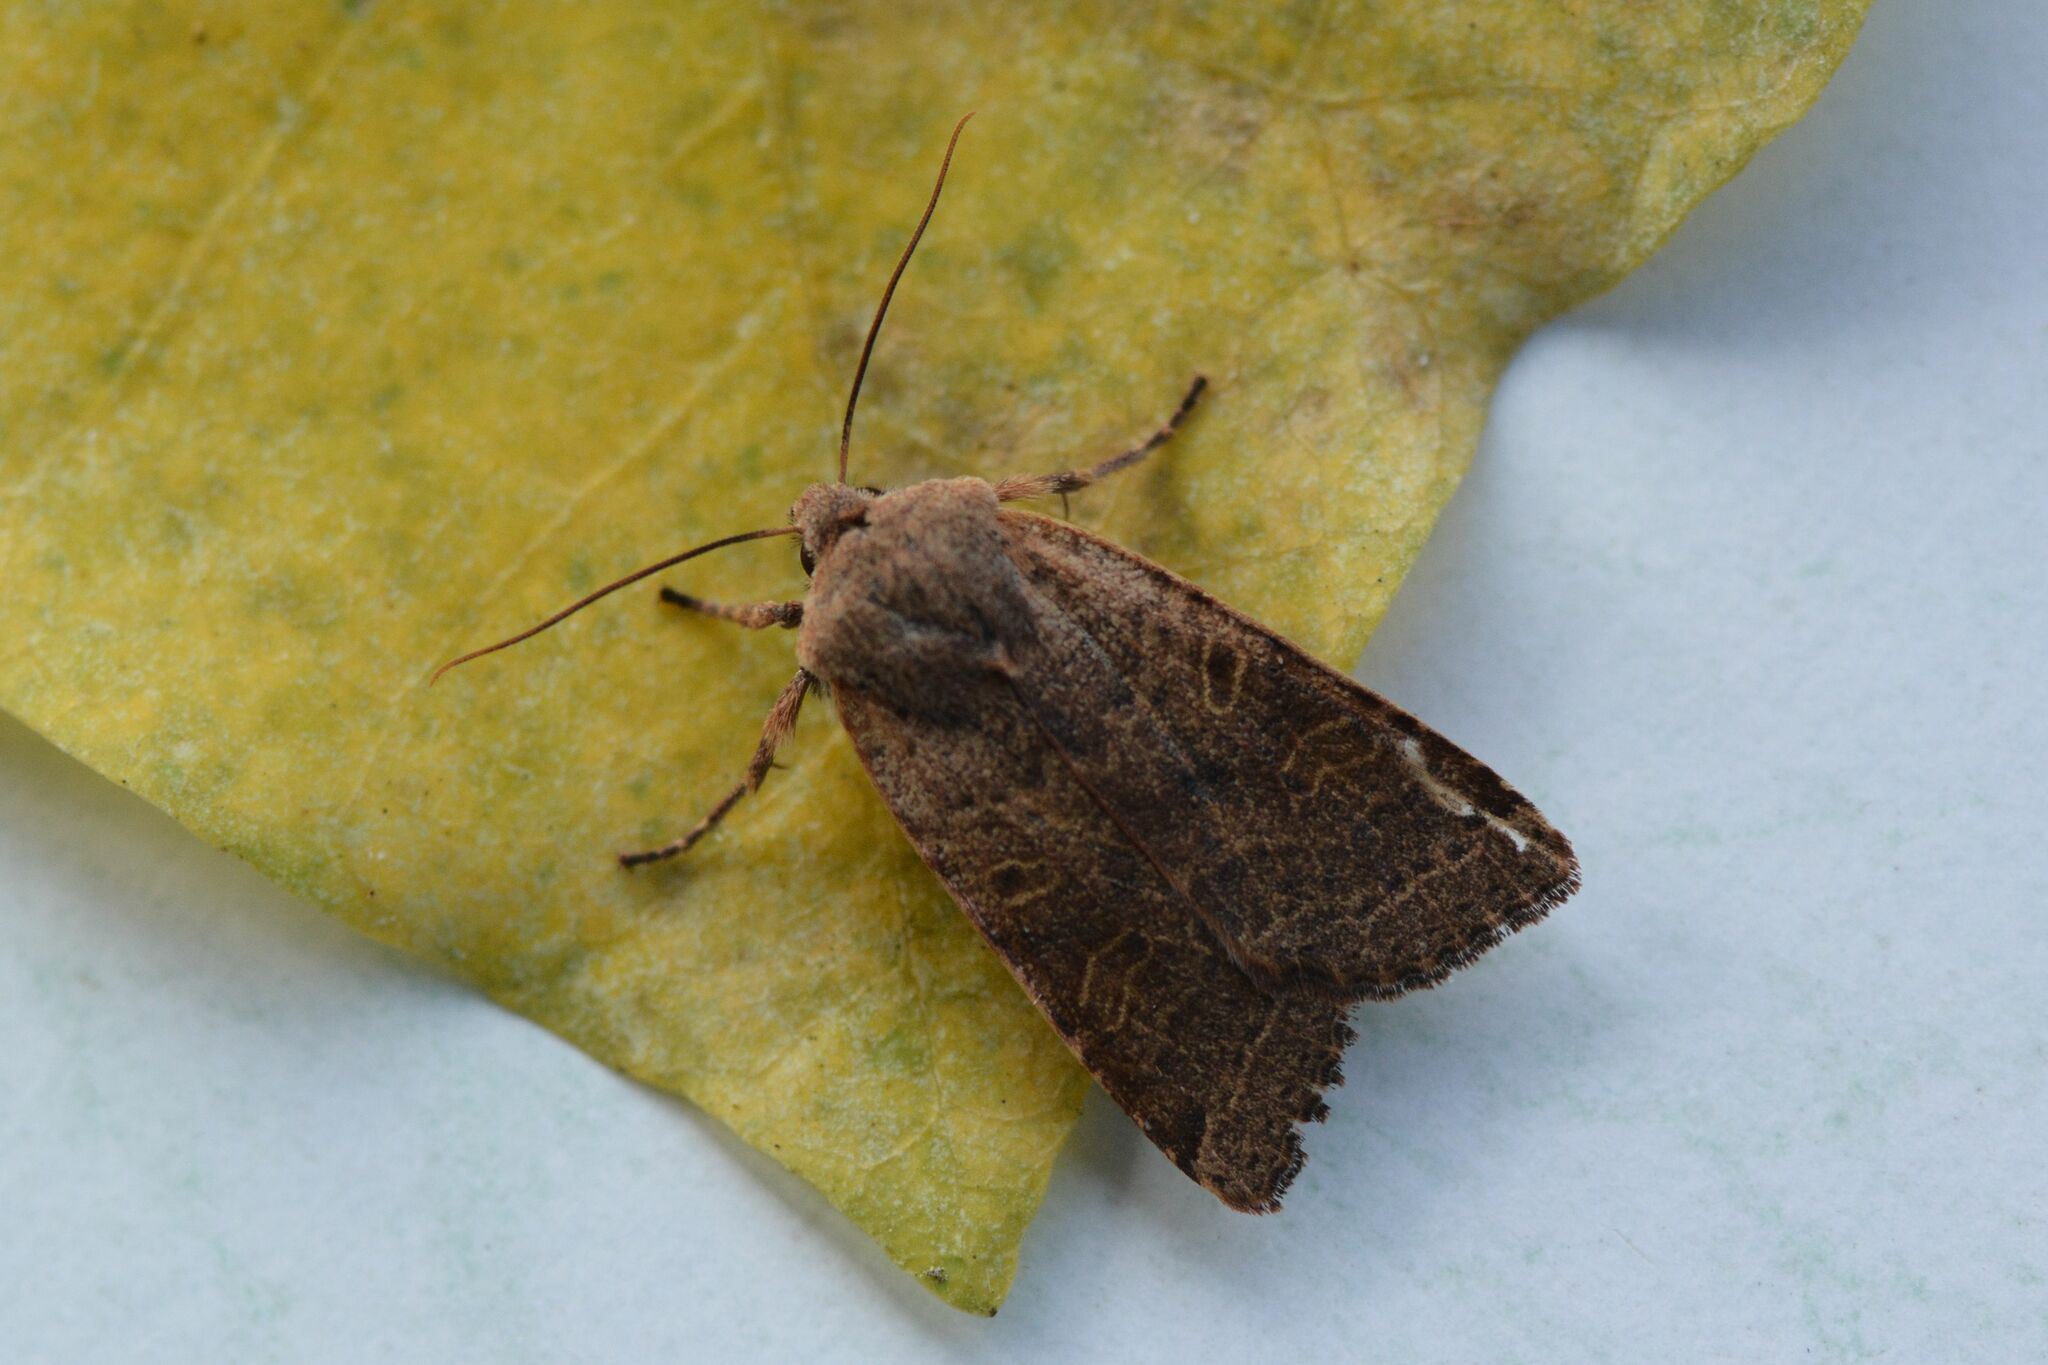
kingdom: Animalia
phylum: Arthropoda
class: Insecta
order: Lepidoptera
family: Noctuidae
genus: Agrochola
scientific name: Agrochola lychnidis
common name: Beaded chestnut
